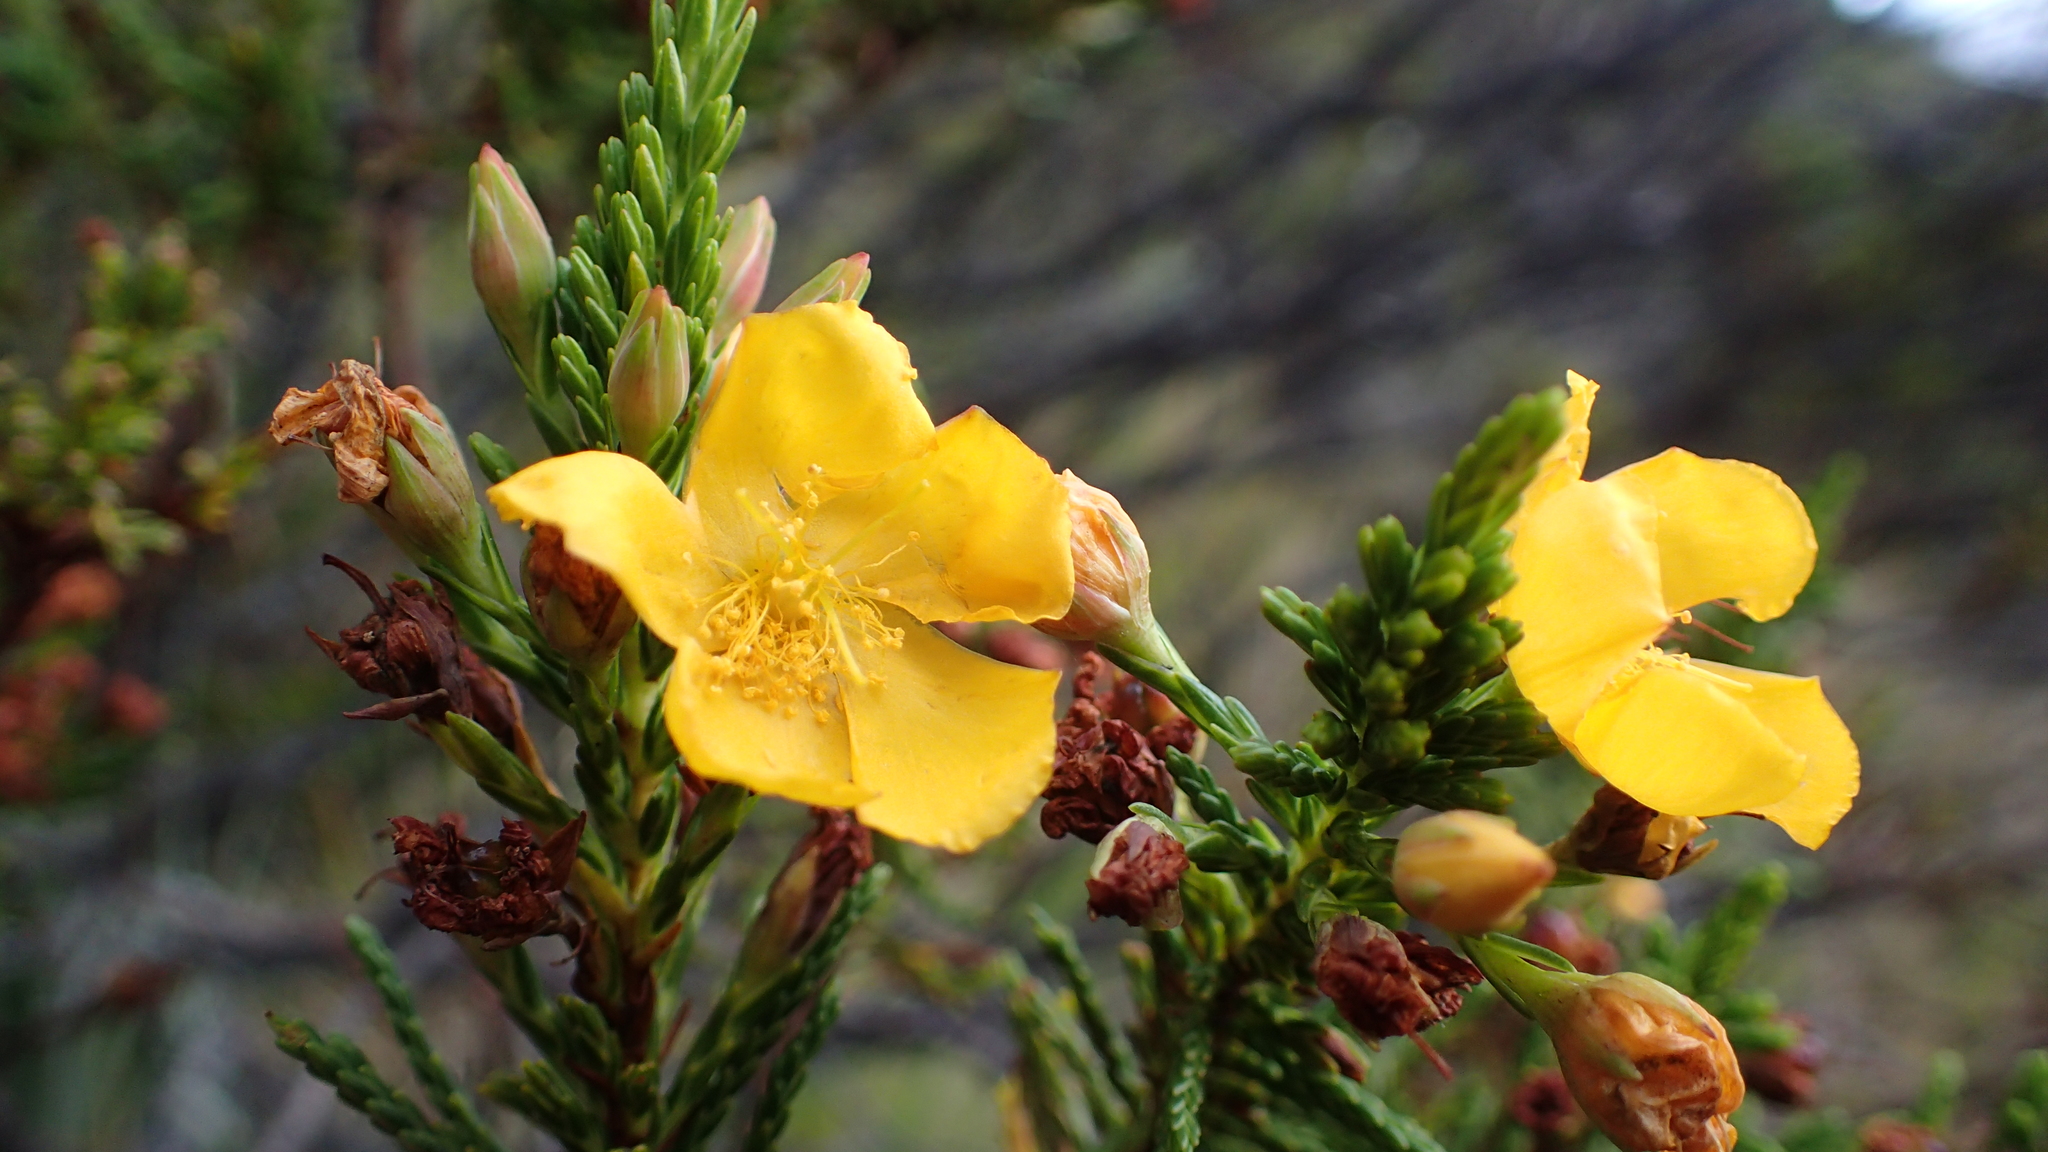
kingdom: Plantae
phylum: Tracheophyta
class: Magnoliopsida
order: Malpighiales
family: Hypericaceae
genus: Hypericum
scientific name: Hypericum goyanesii
